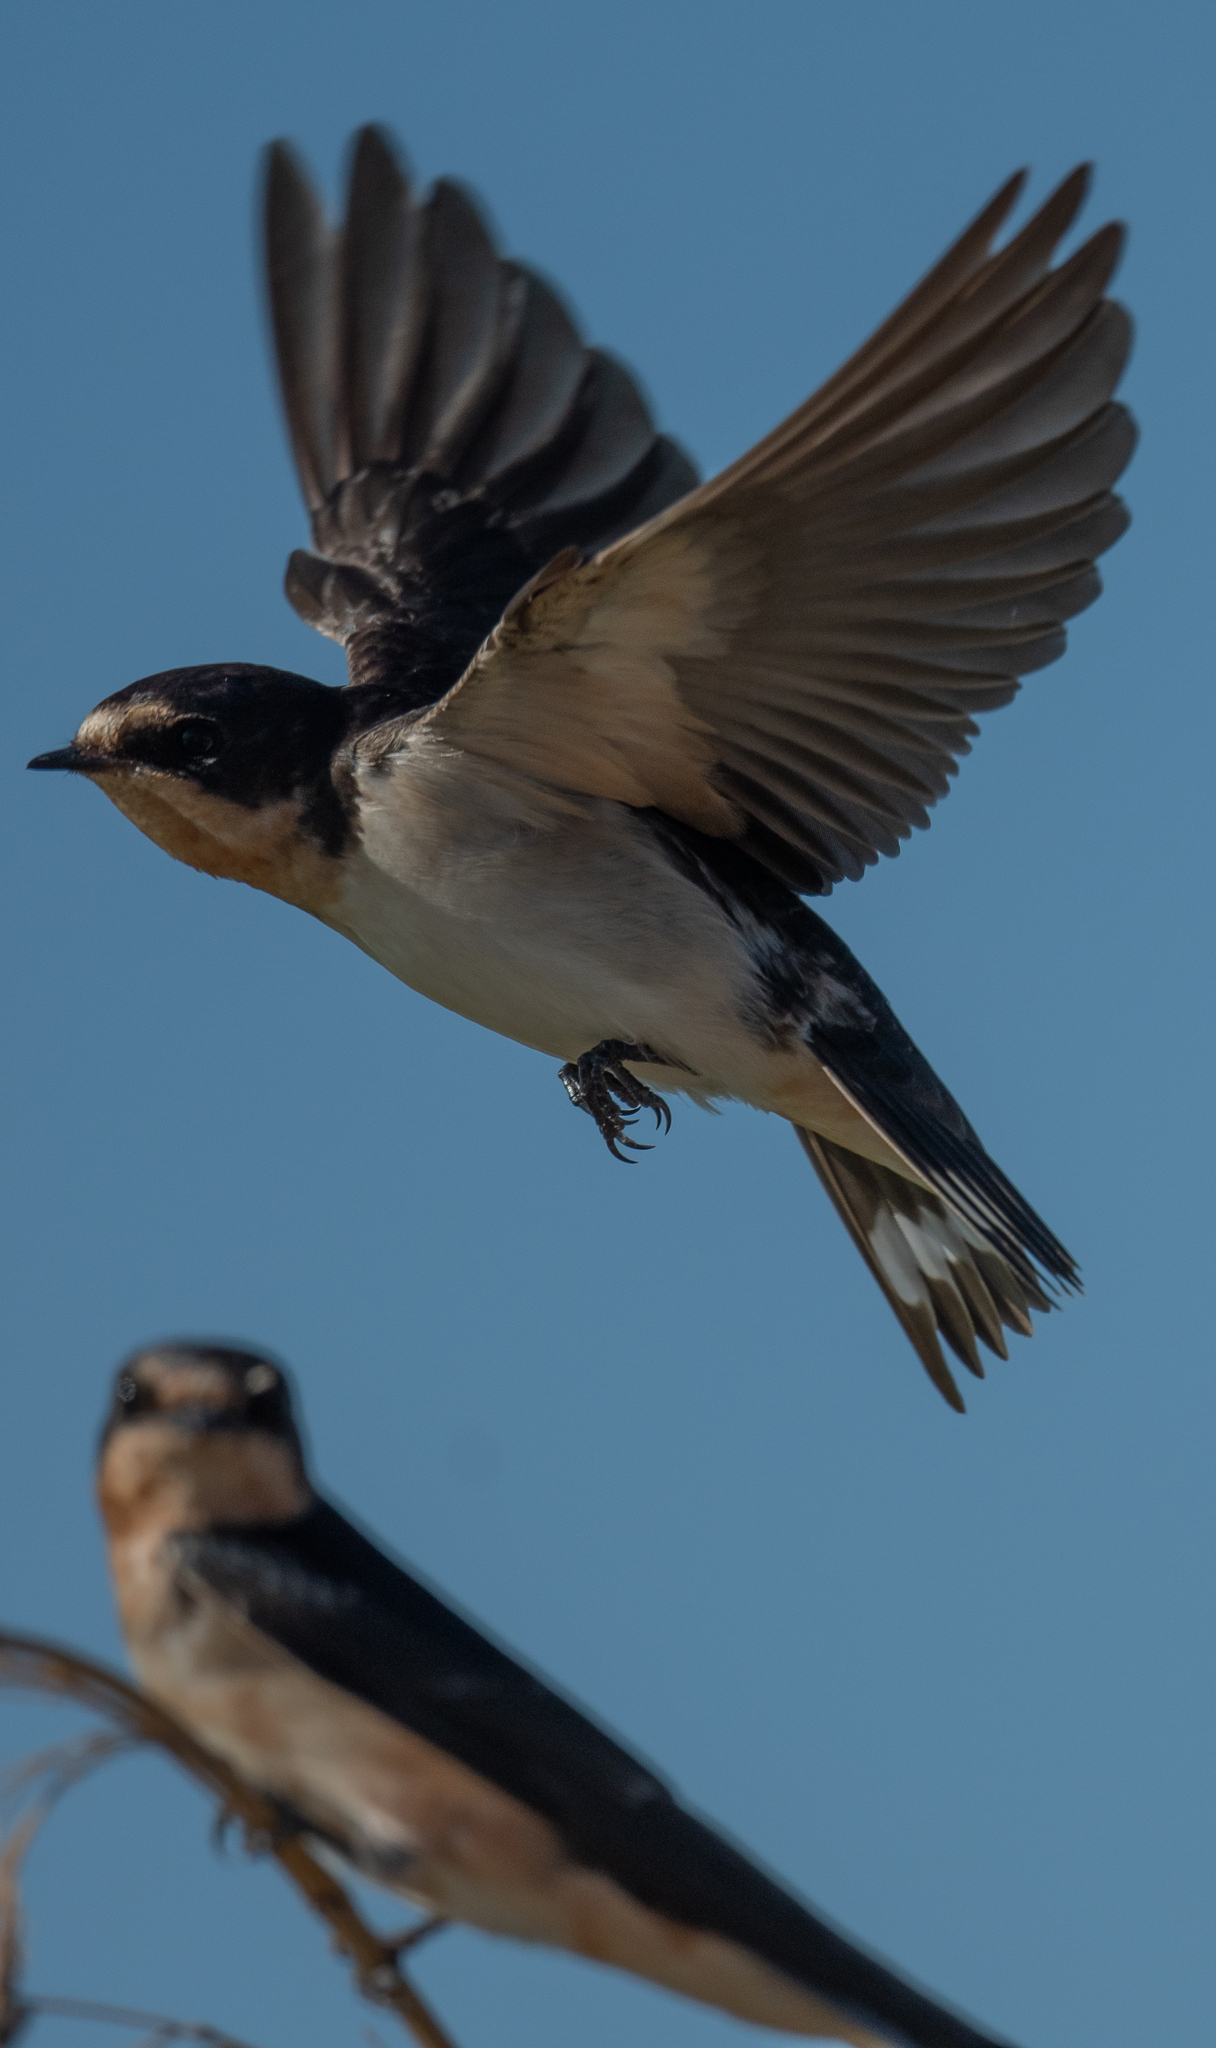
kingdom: Animalia
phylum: Chordata
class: Aves
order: Passeriformes
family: Hirundinidae
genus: Hirundo
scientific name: Hirundo rustica
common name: Barn swallow
